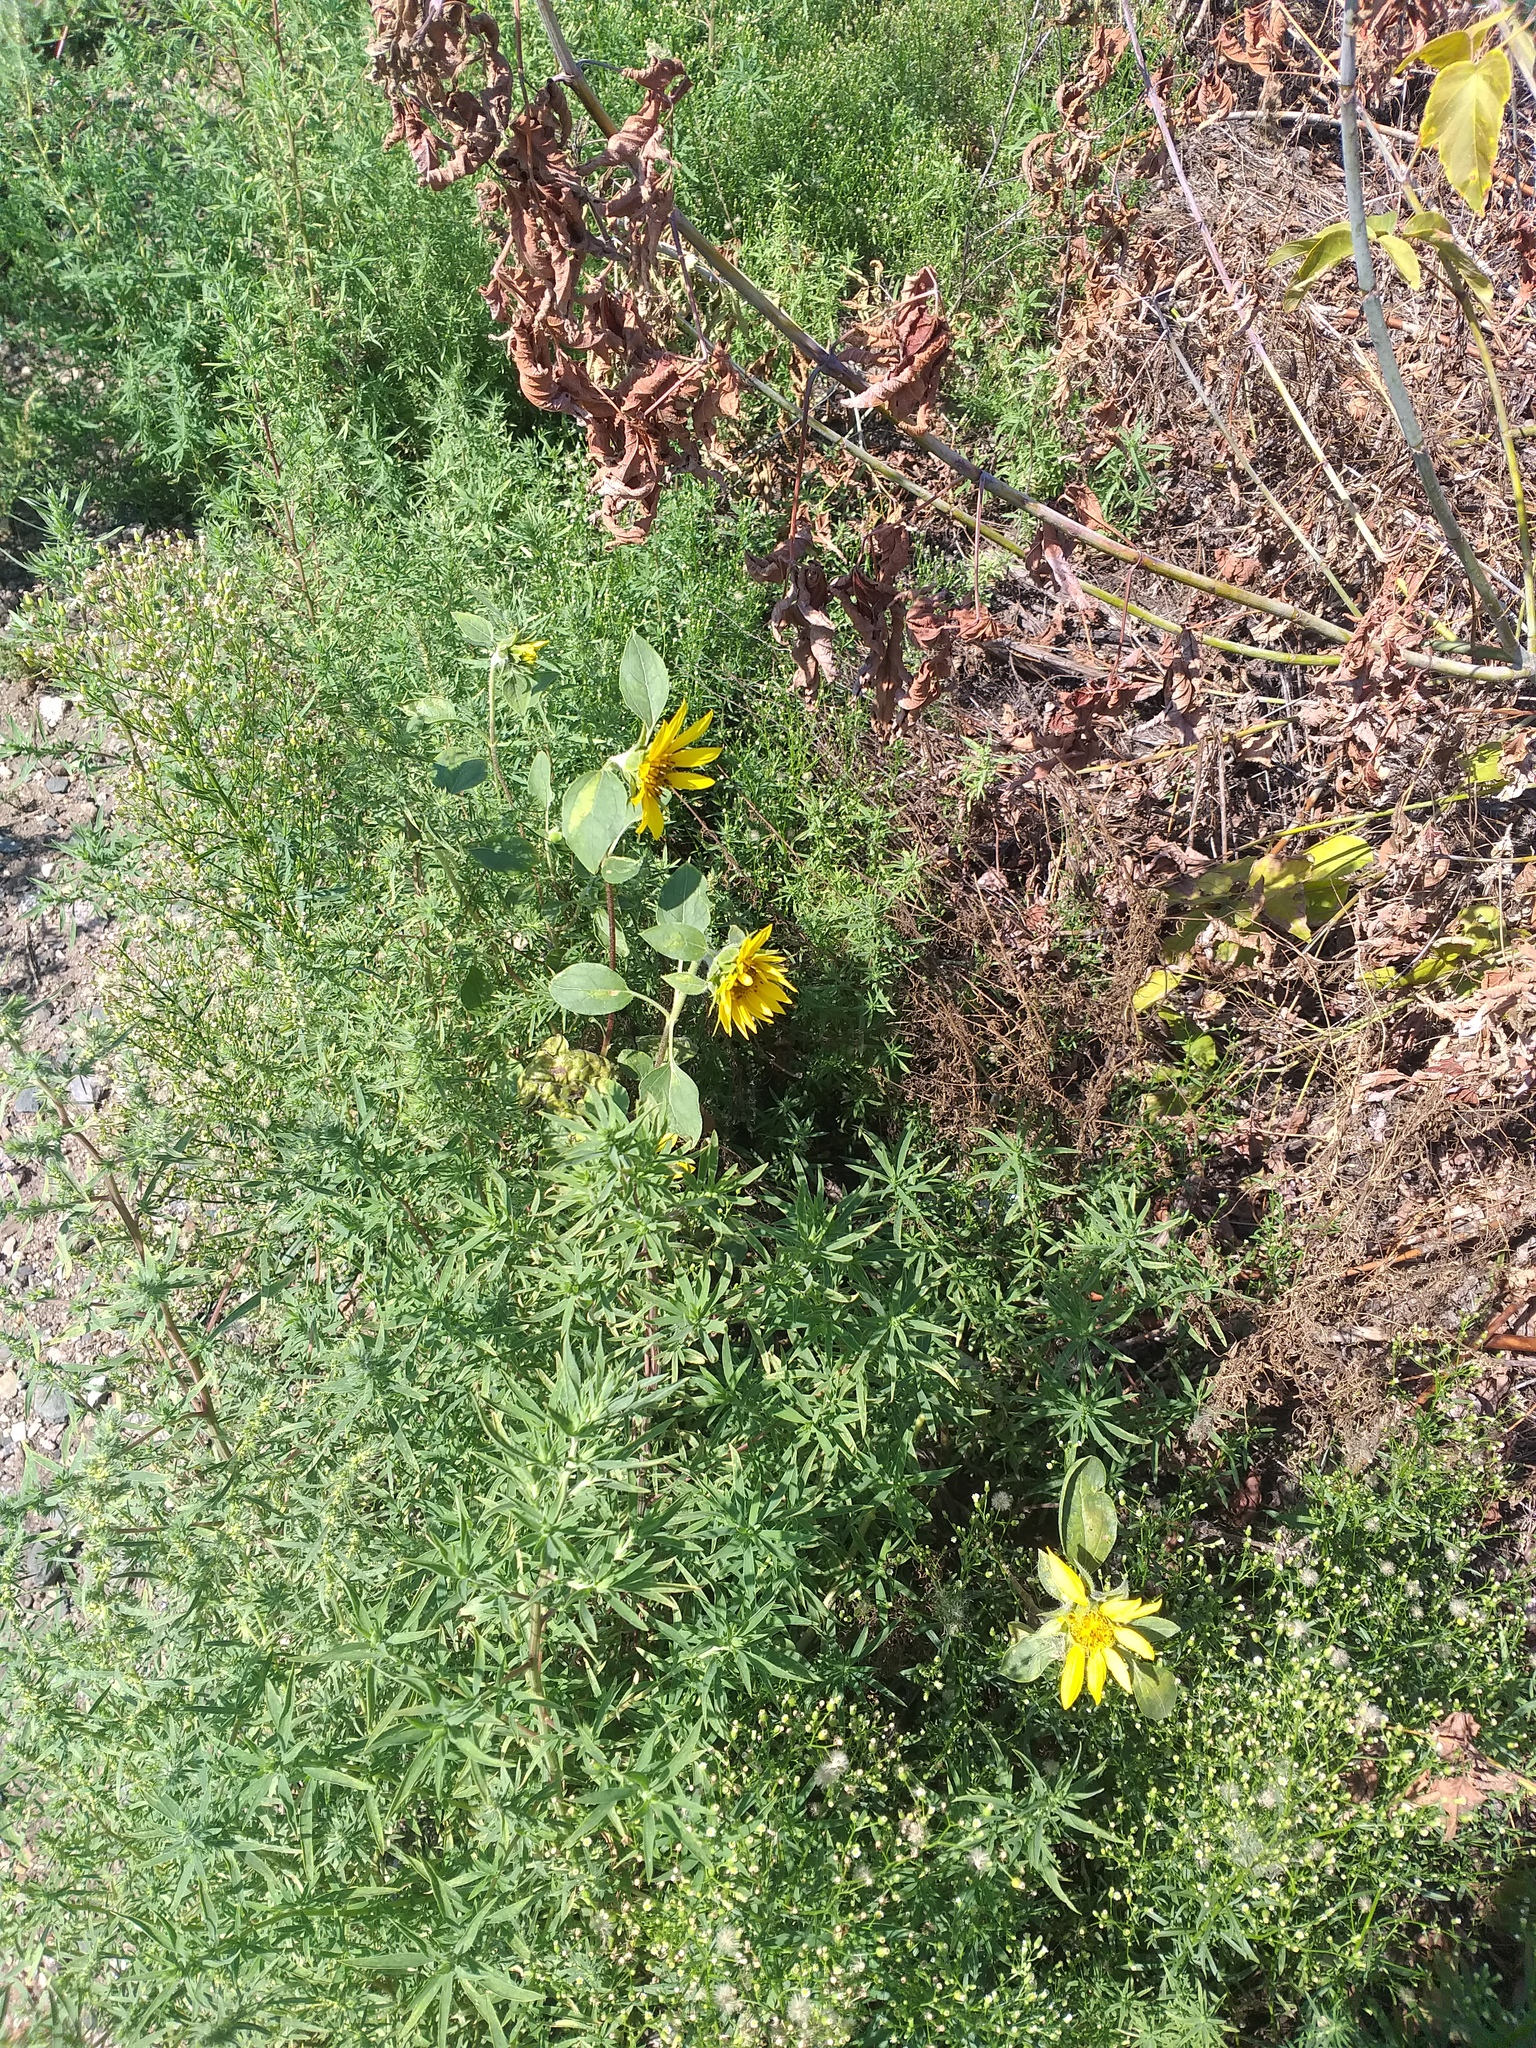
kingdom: Plantae
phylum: Tracheophyta
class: Magnoliopsida
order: Asterales
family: Asteraceae
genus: Helianthus
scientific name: Helianthus annuus
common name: Sunflower
